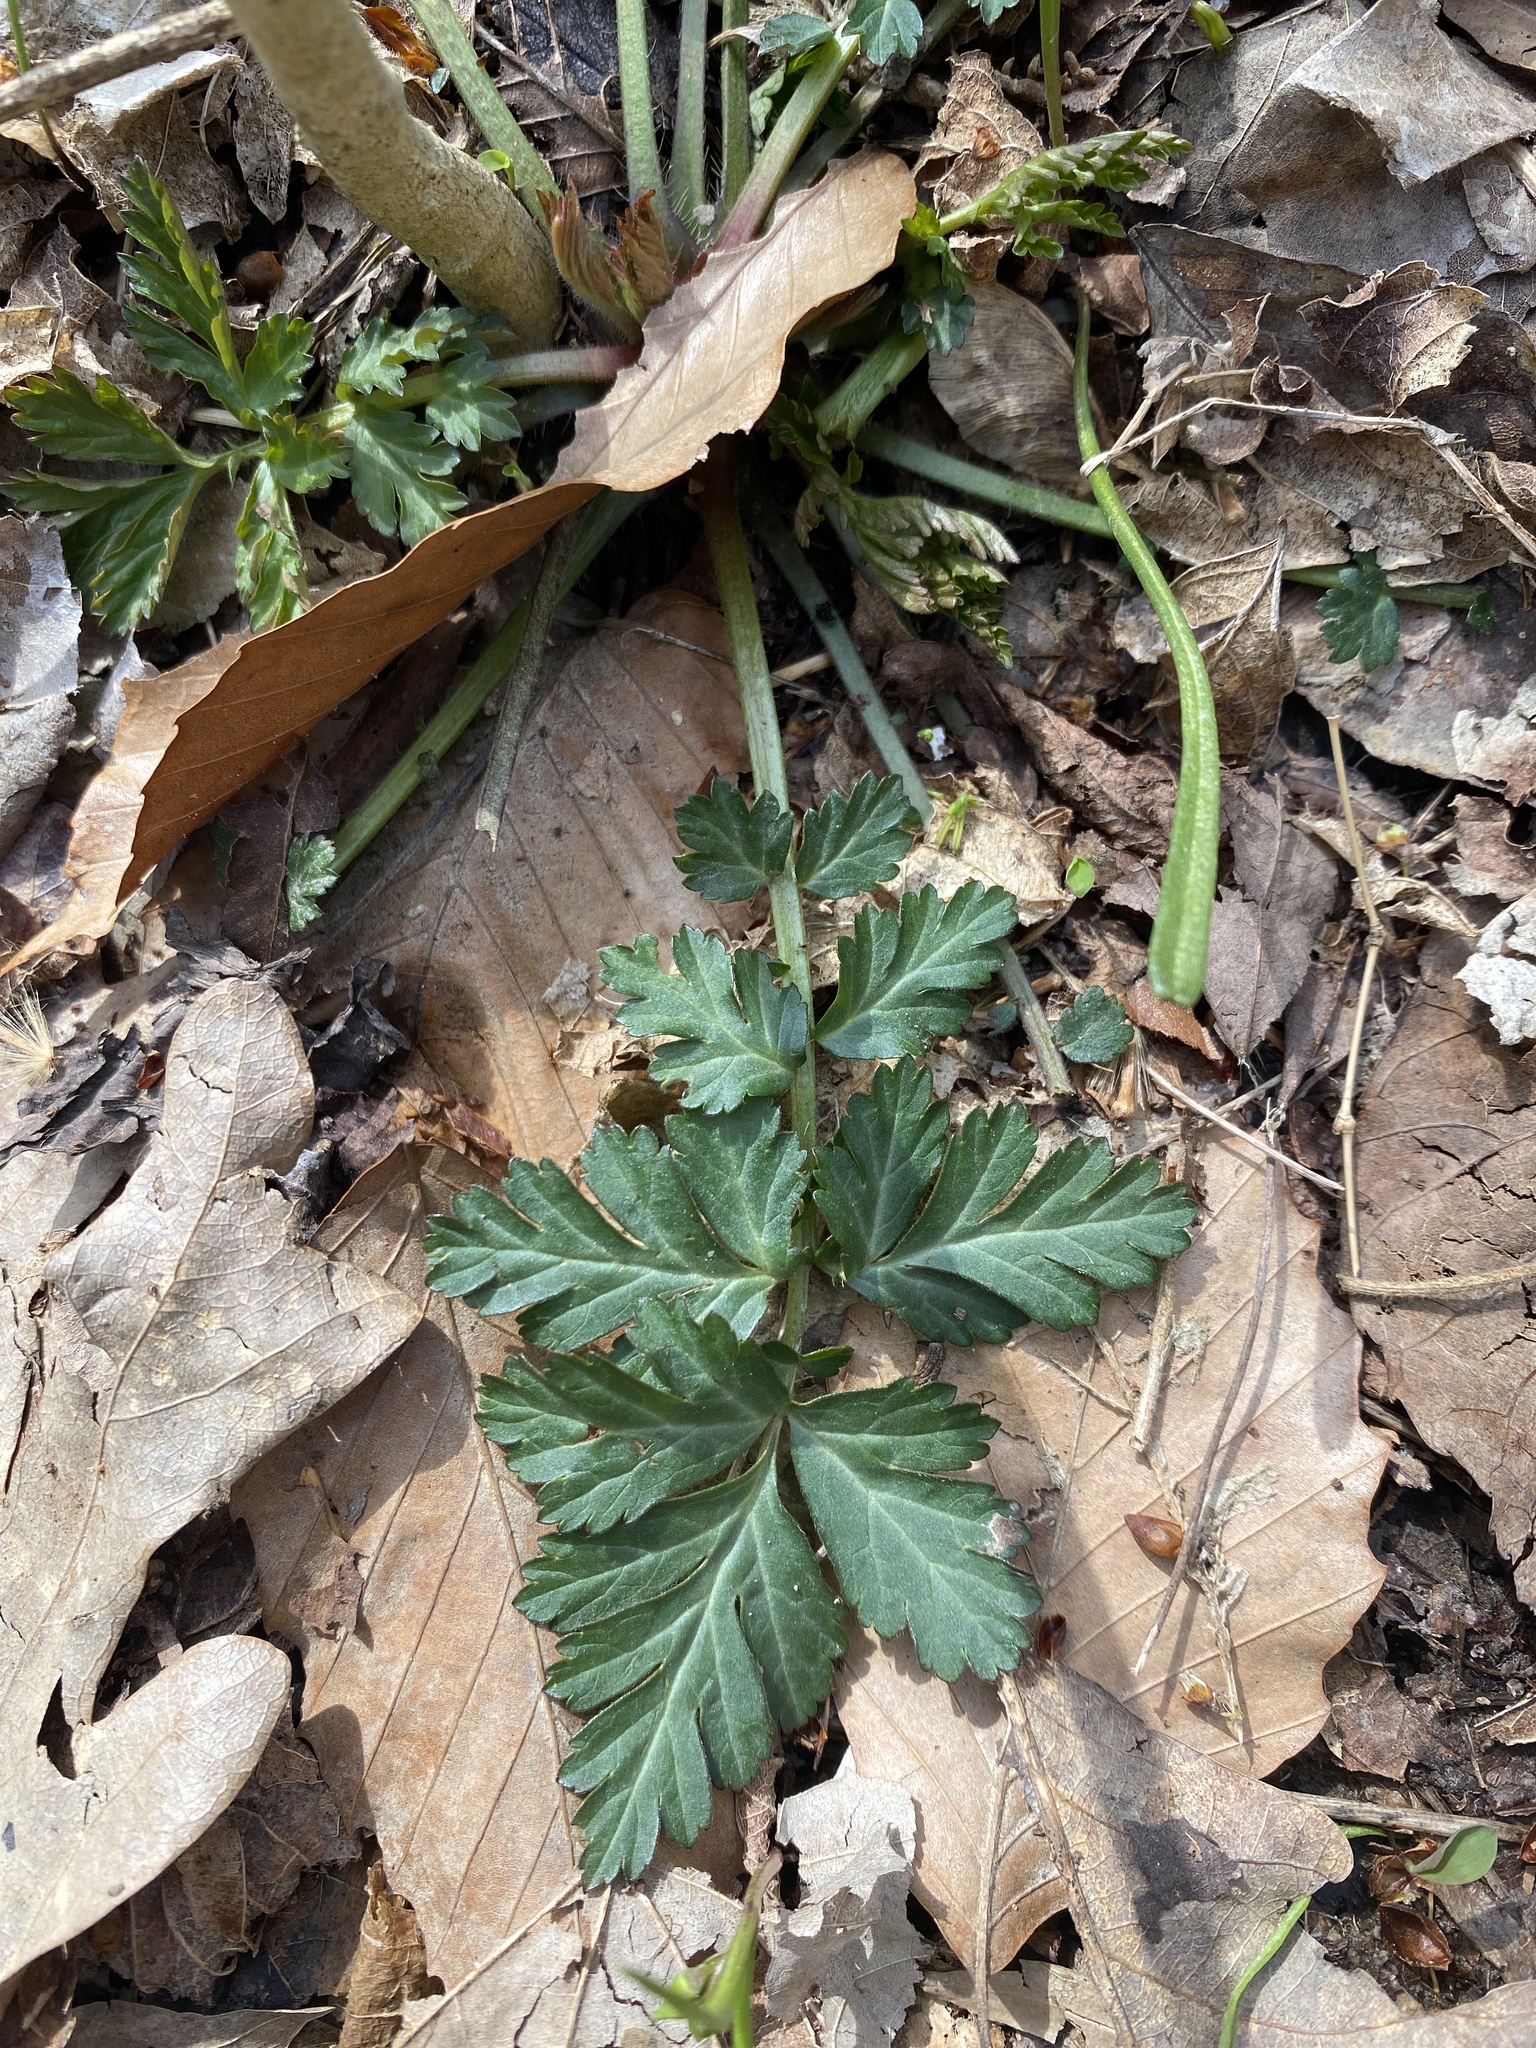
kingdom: Plantae
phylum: Tracheophyta
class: Magnoliopsida
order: Rosales
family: Rosaceae
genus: Geum
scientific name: Geum canadense
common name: White avens
